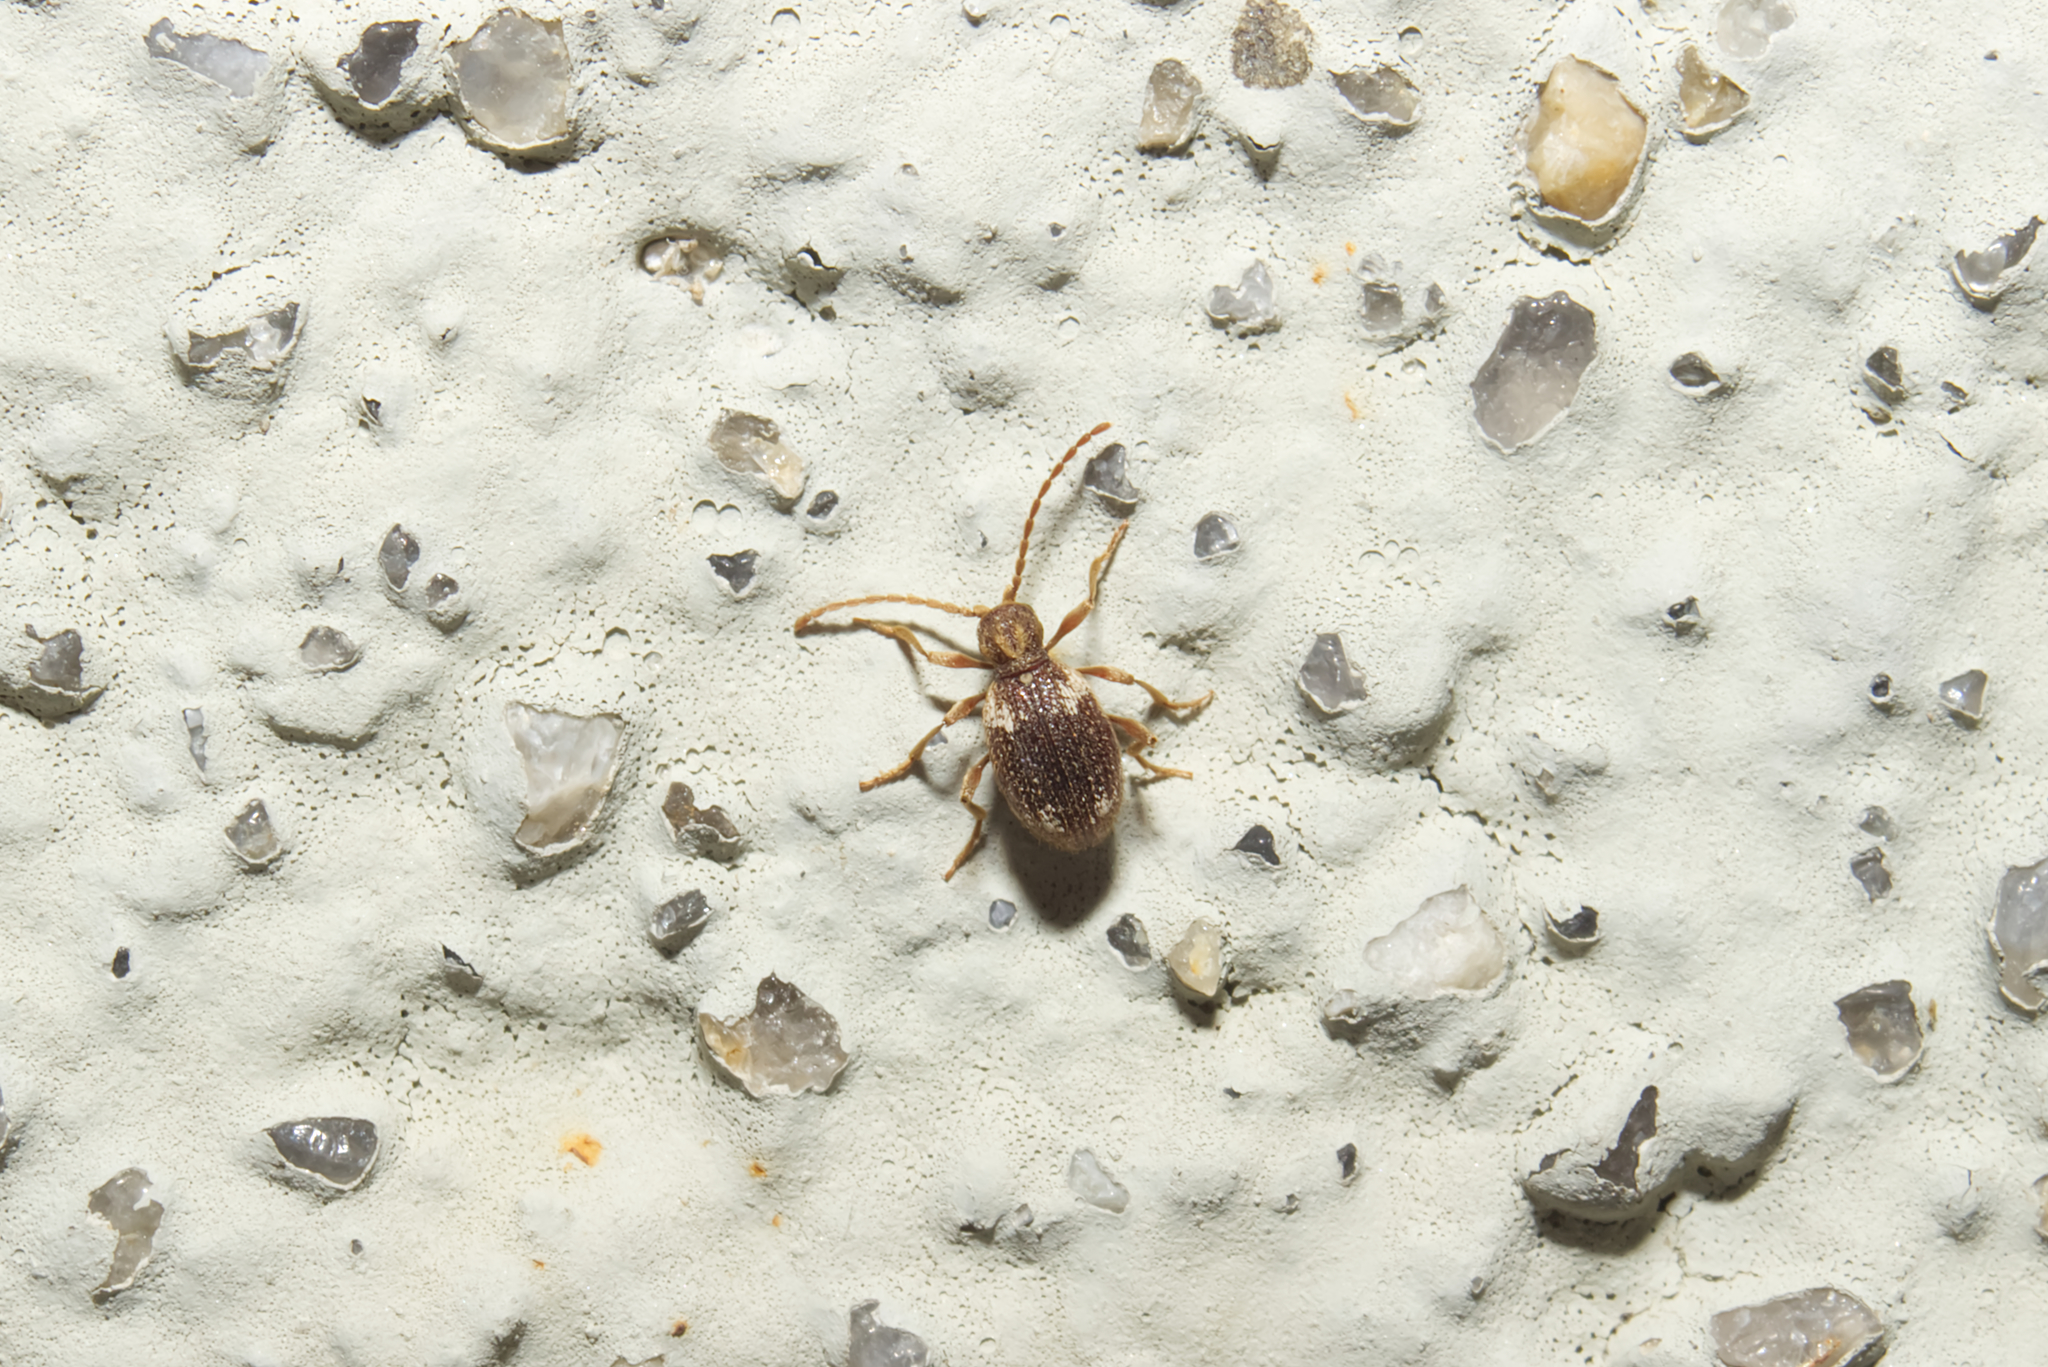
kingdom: Animalia
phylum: Arthropoda
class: Insecta
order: Coleoptera
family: Ptinidae
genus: Ptinus
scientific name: Ptinus fur
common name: White-marked spider beetle
